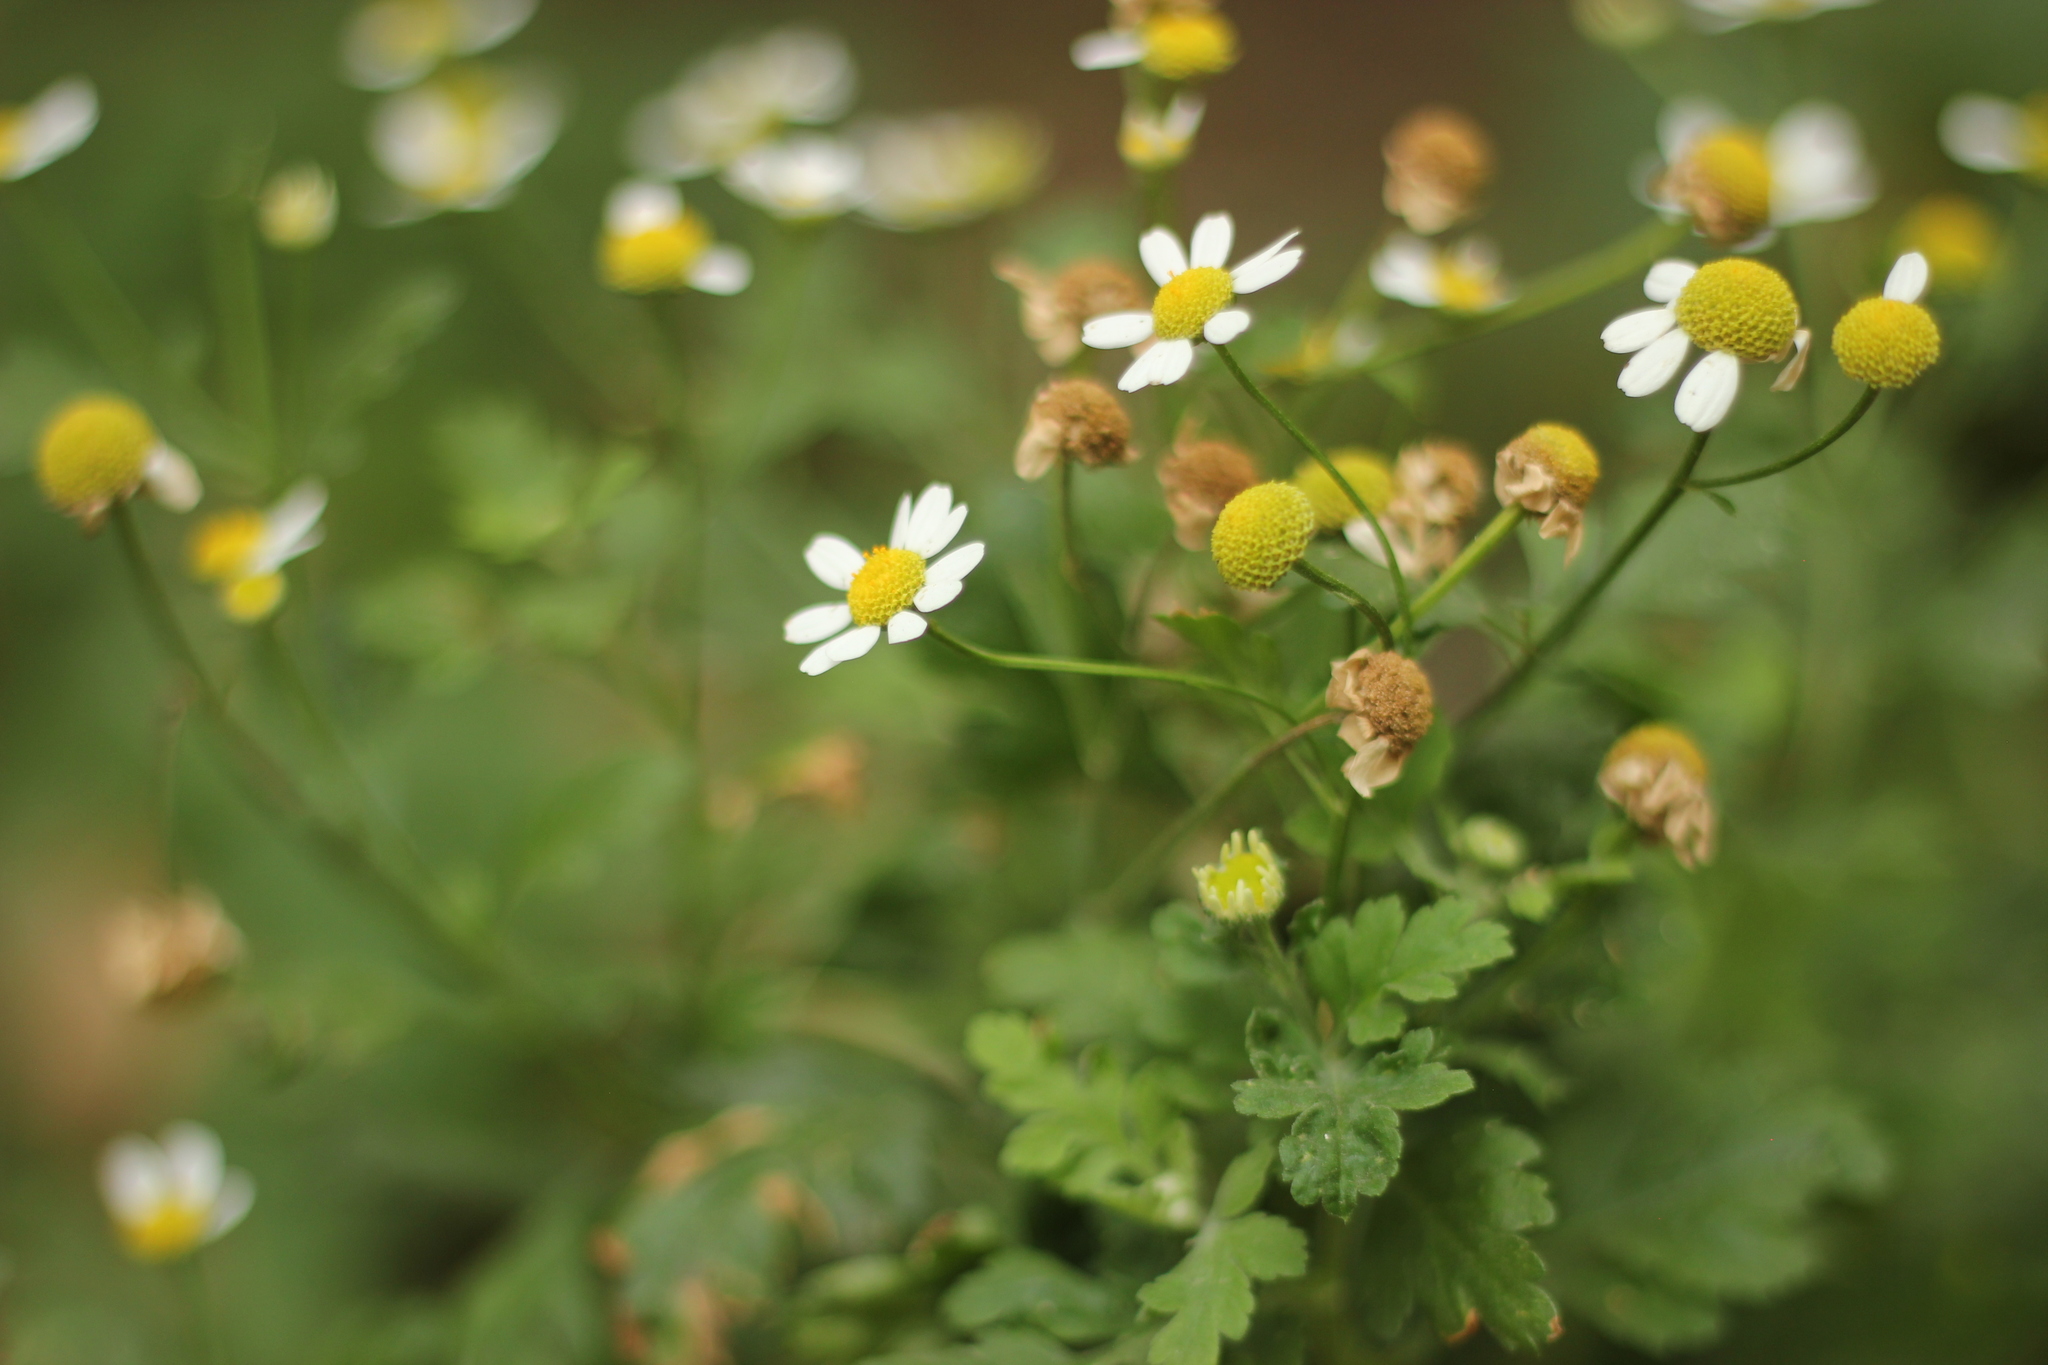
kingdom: Plantae
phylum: Tracheophyta
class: Magnoliopsida
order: Asterales
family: Asteraceae
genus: Tanacetum
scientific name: Tanacetum parthenium
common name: Feverfew
